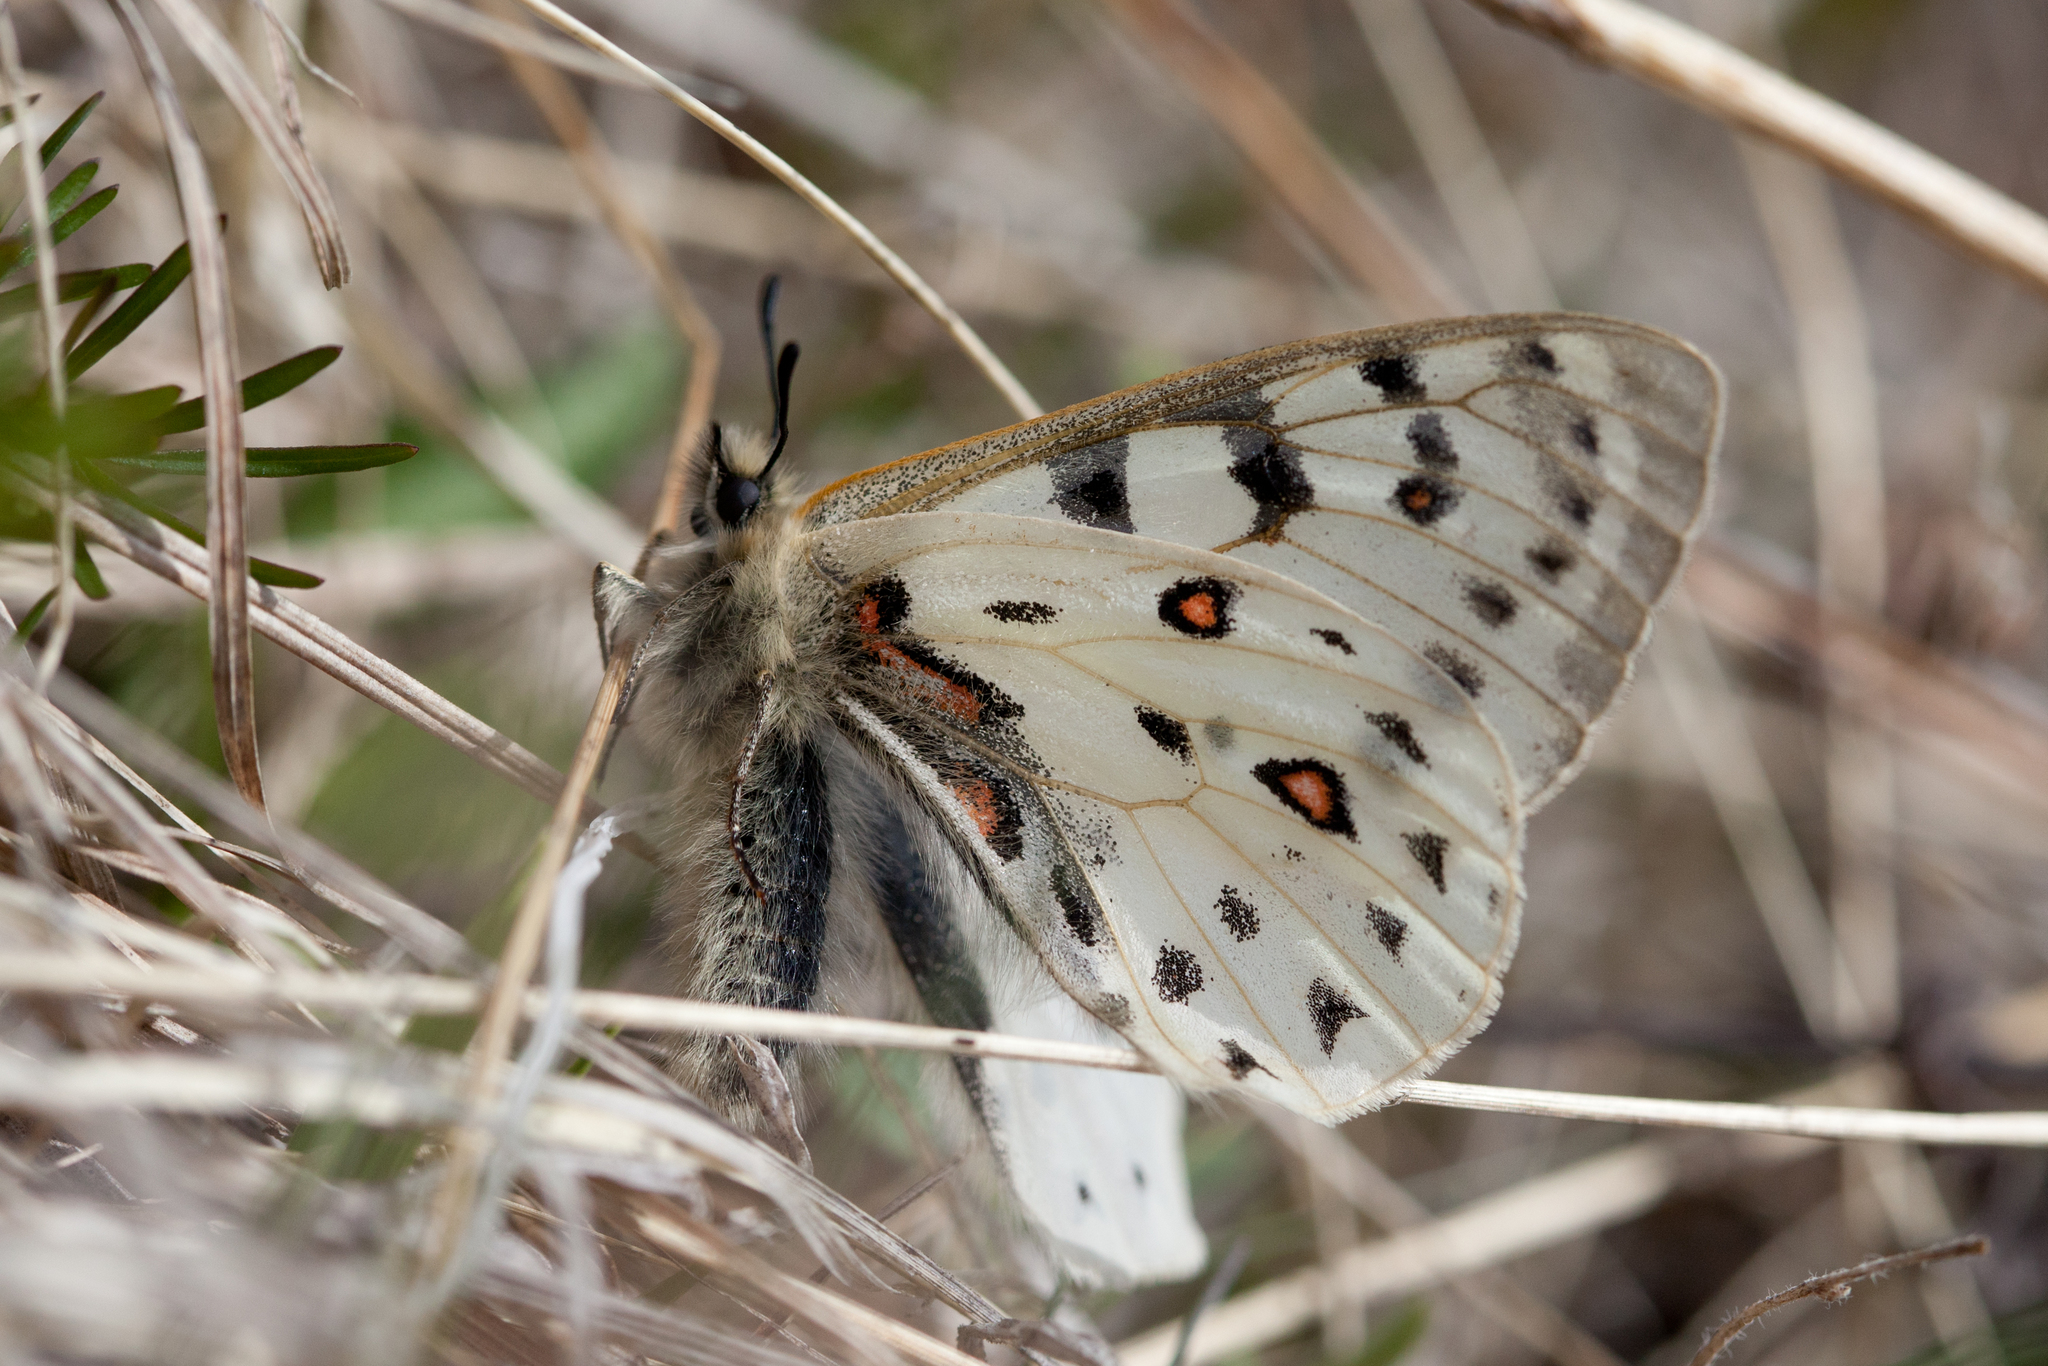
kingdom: Animalia
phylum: Arthropoda
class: Insecta
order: Lepidoptera
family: Papilionidae
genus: Parnassius
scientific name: Parnassius tenedius
